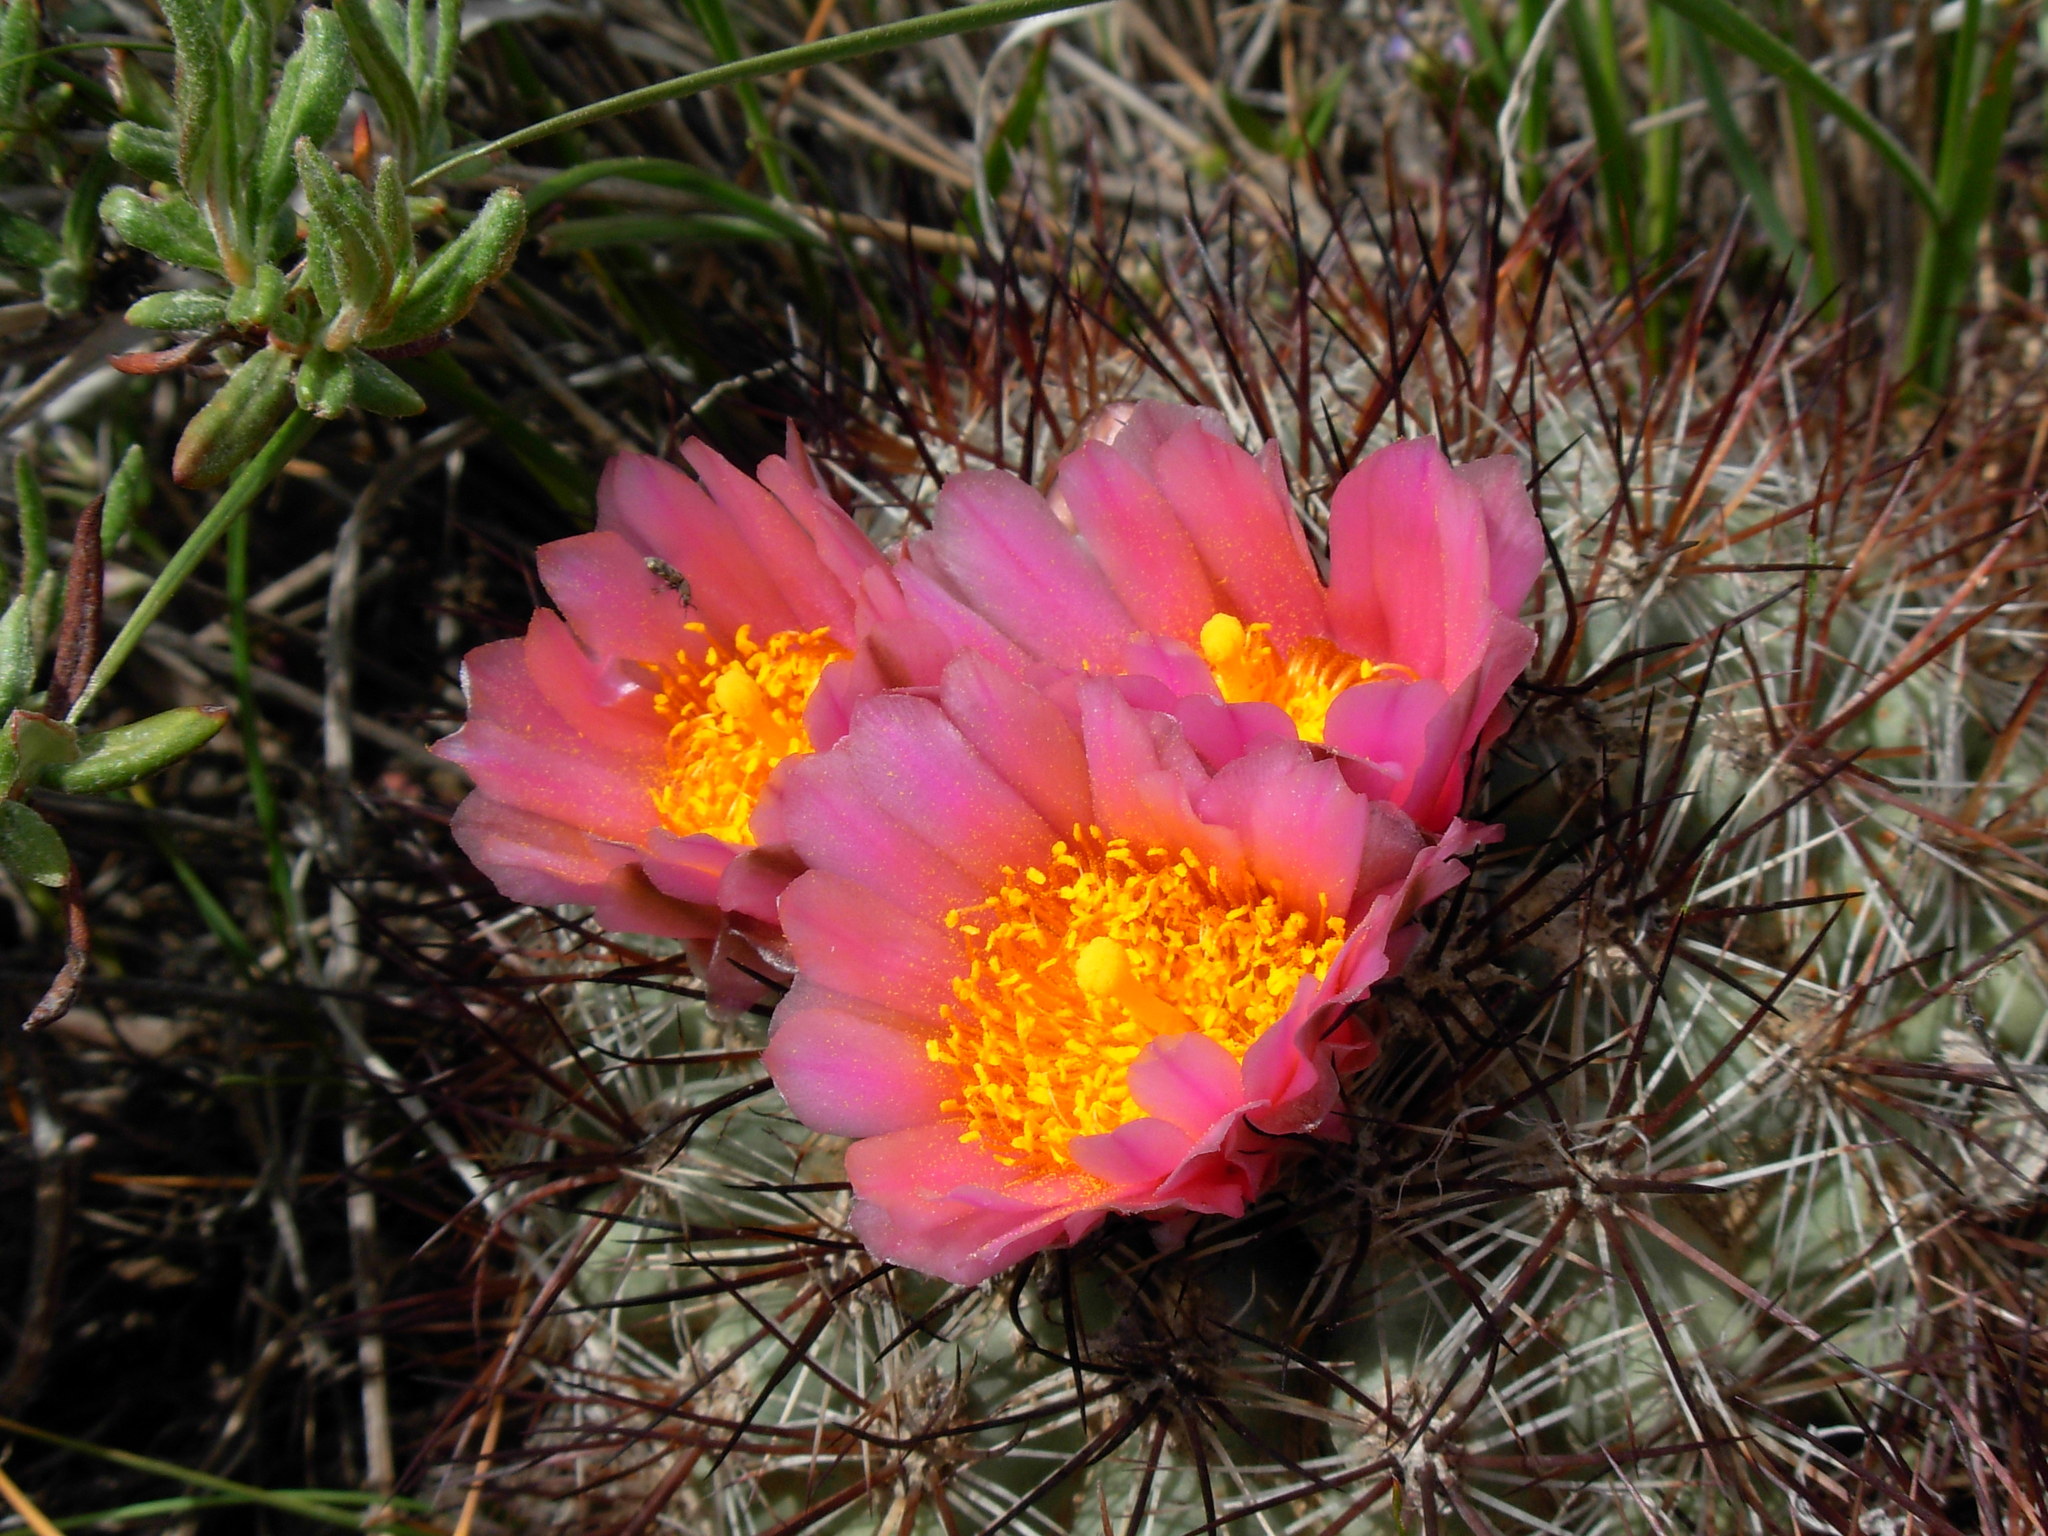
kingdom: Plantae
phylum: Tracheophyta
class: Magnoliopsida
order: Caryophyllales
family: Cactaceae
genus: Pediocactus
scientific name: Pediocactus nigrispinus
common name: Simpson's hedgehog cactus
